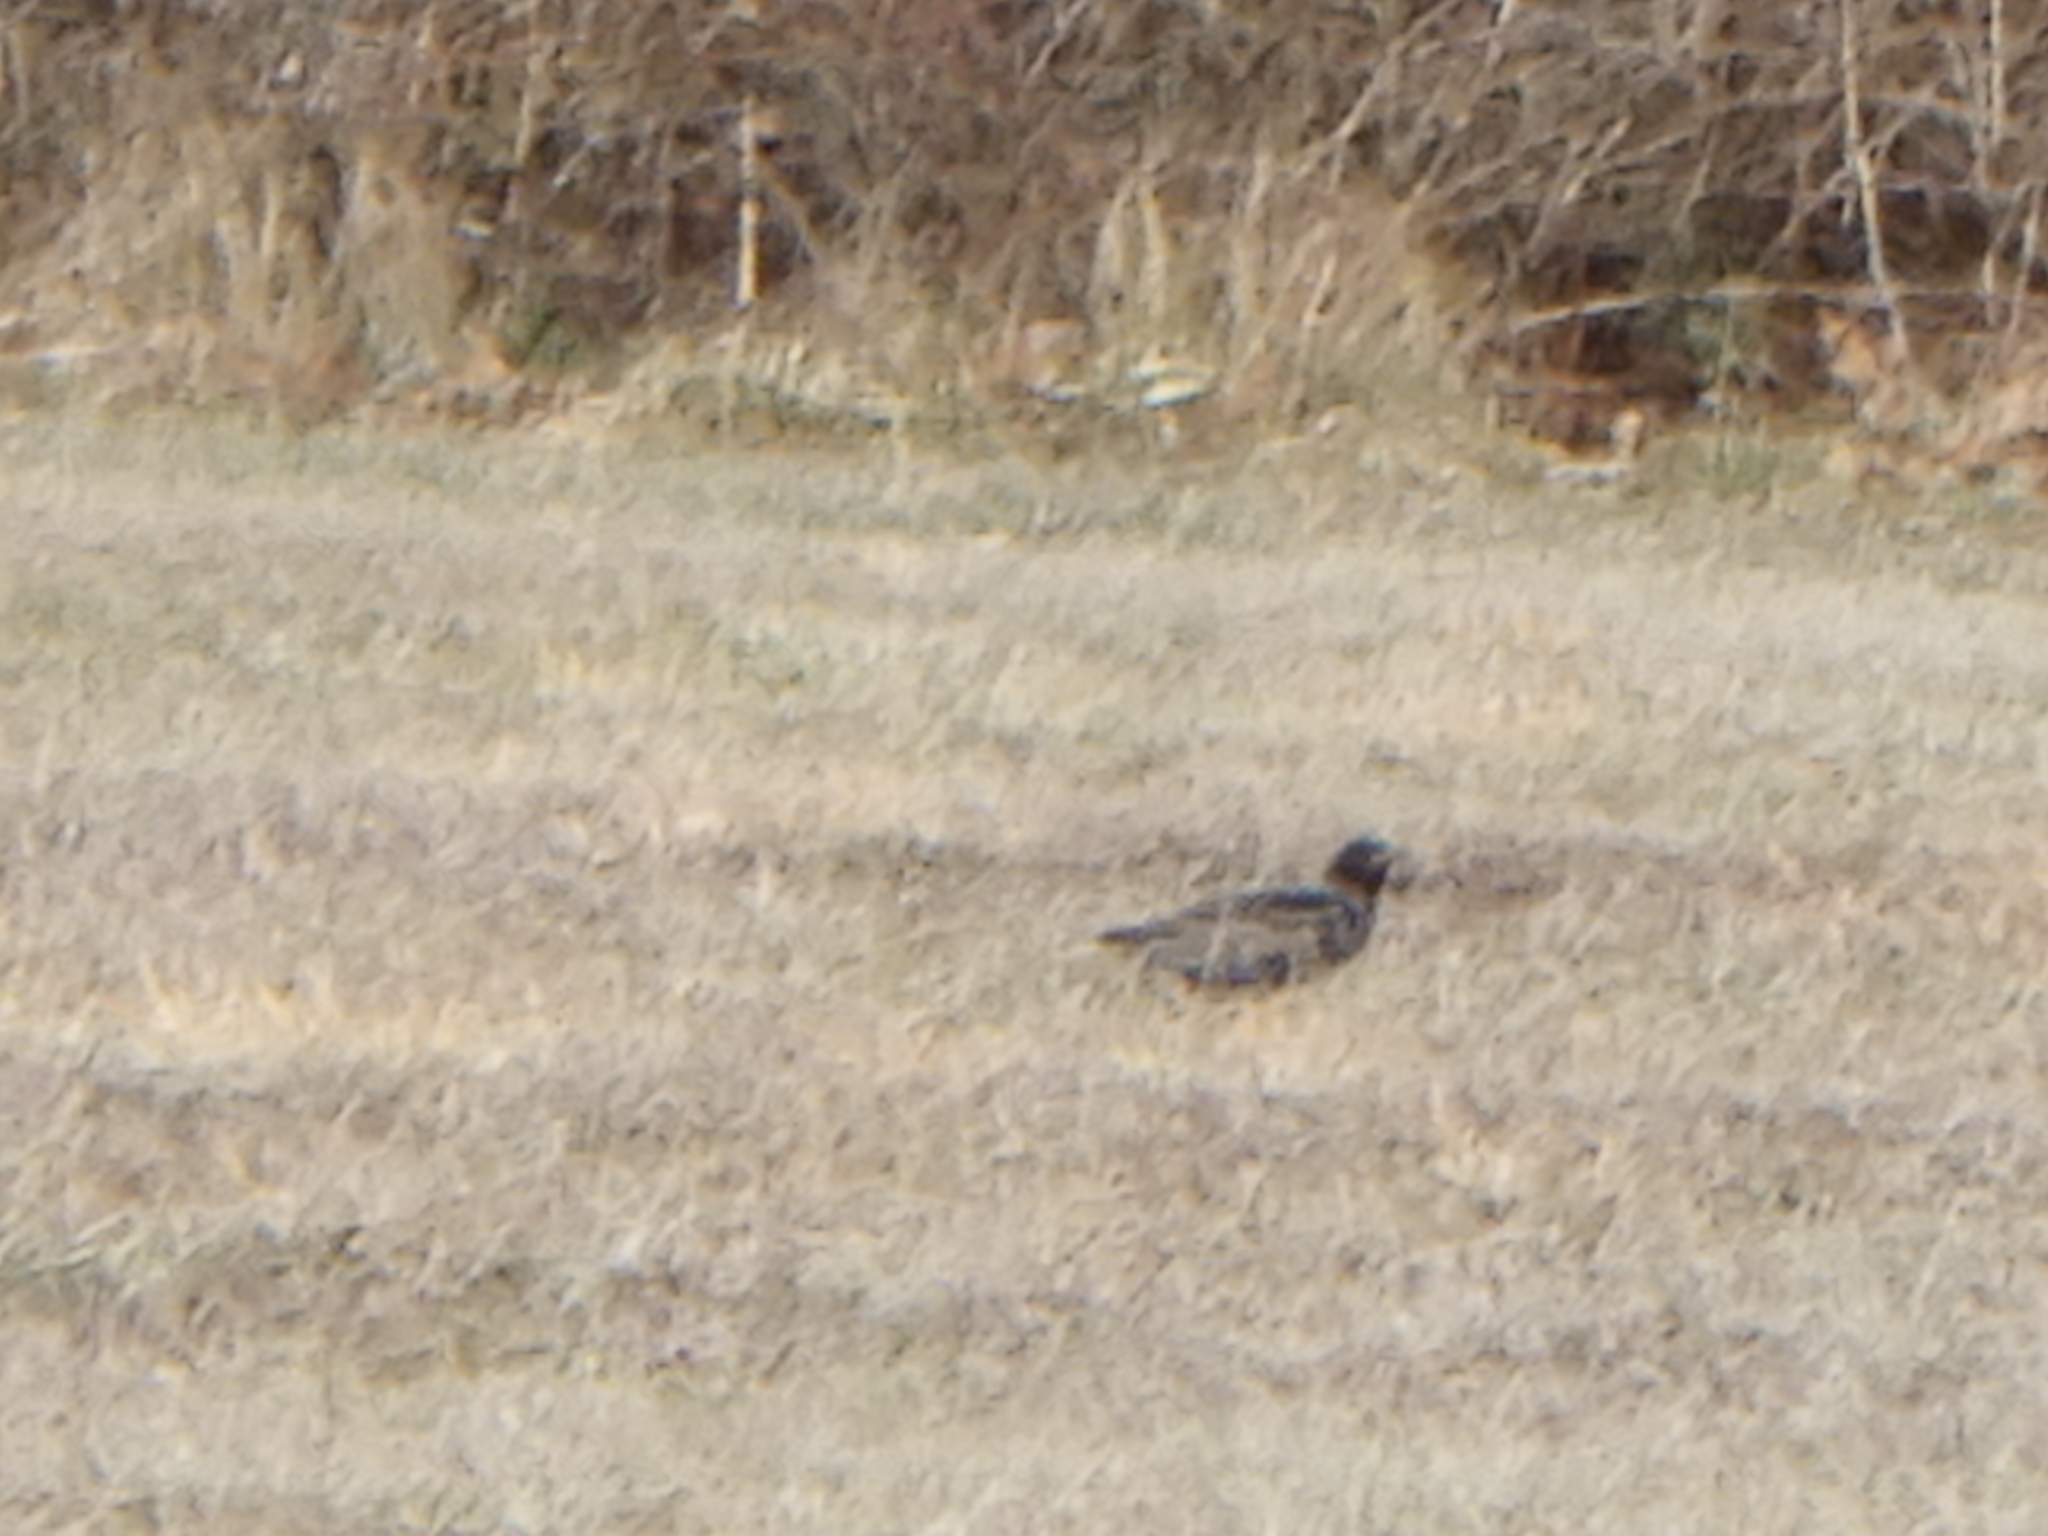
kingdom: Animalia
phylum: Chordata
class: Aves
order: Passeriformes
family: Sturnidae
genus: Sturnus
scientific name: Sturnus vulgaris
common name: Common starling
